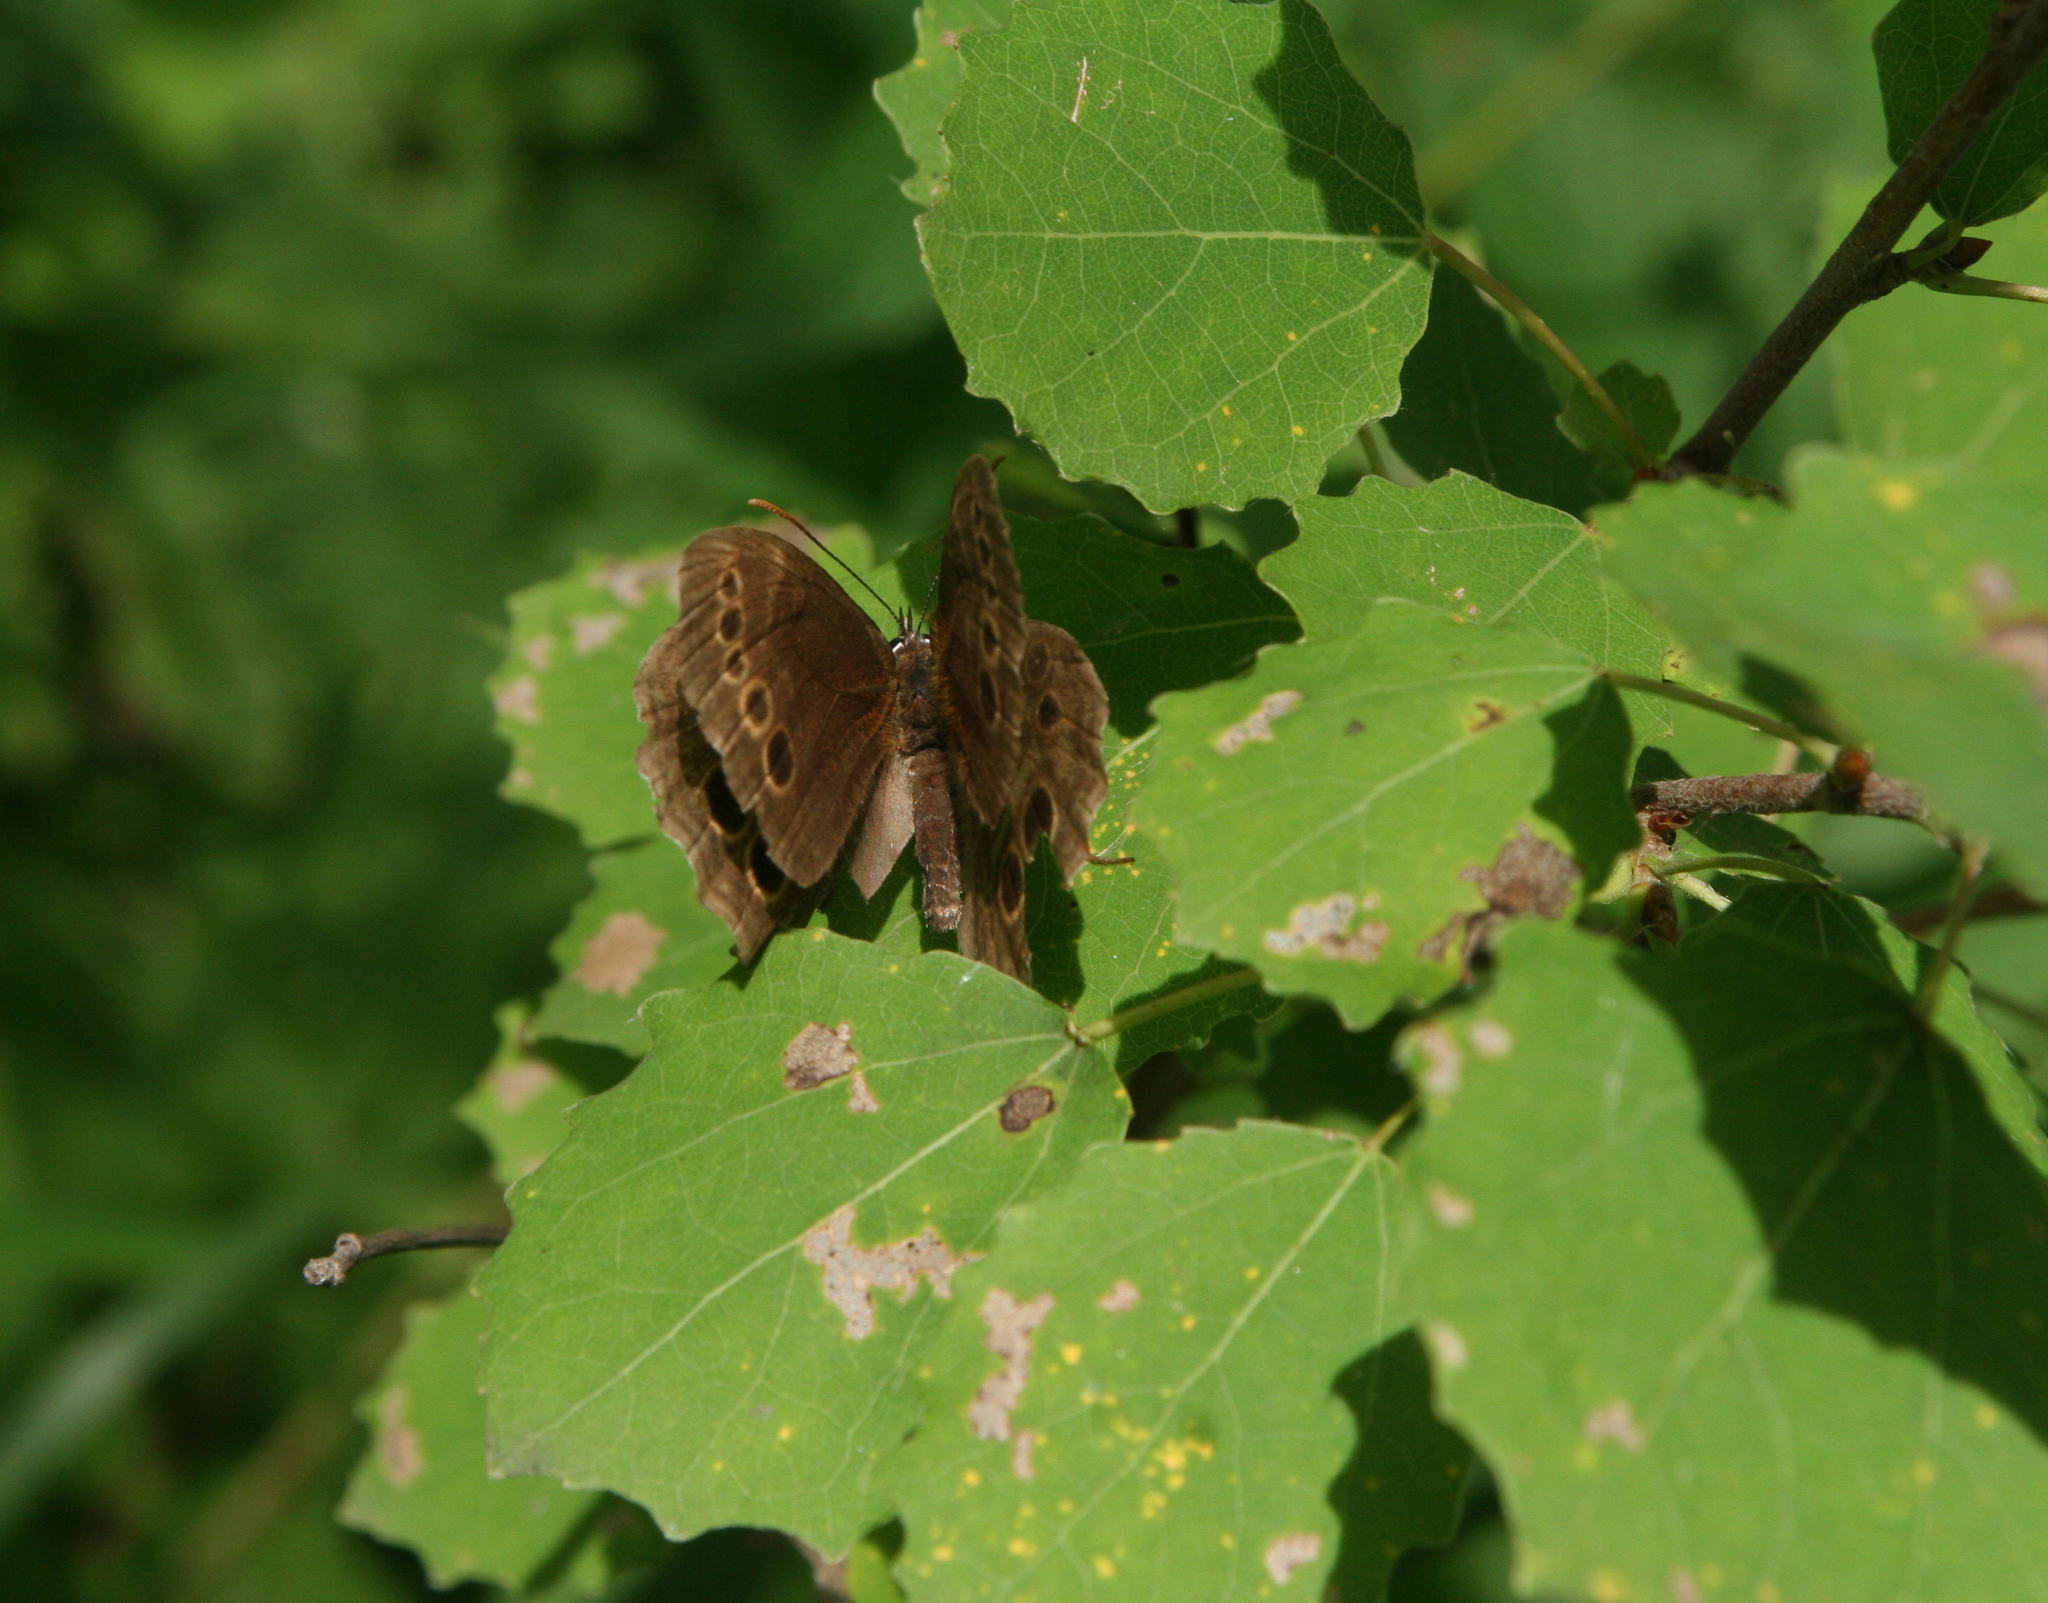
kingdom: Plantae
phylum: Tracheophyta
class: Magnoliopsida
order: Malpighiales
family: Salicaceae
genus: Populus
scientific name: Populus tremula
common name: European aspen
